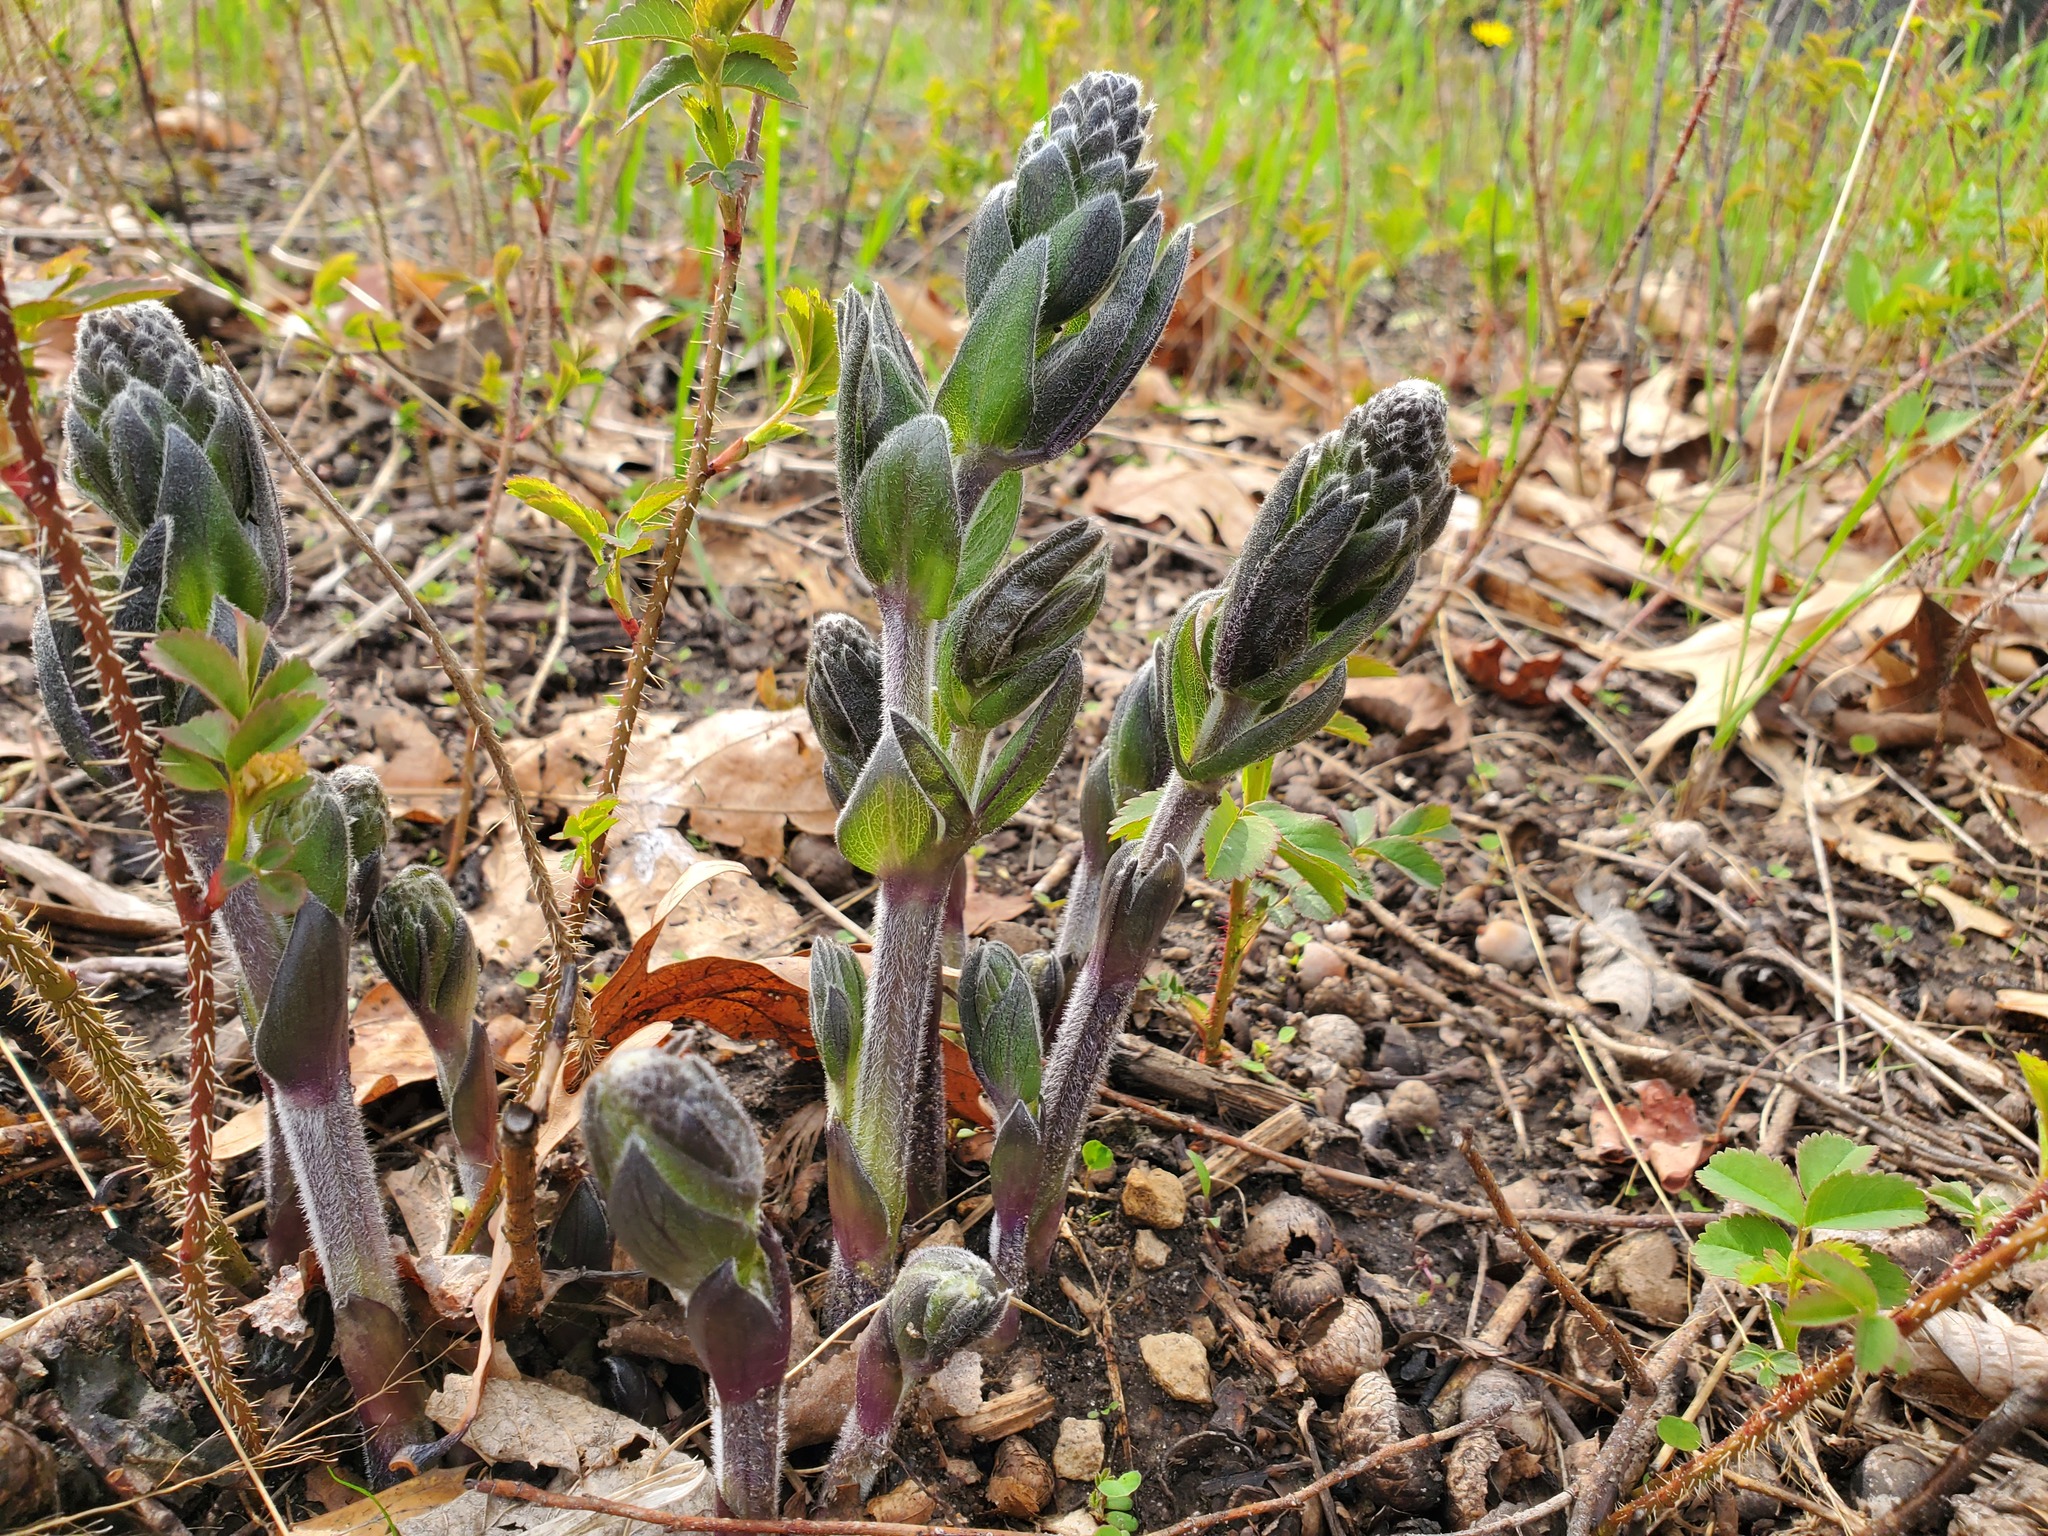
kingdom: Plantae
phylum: Tracheophyta
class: Magnoliopsida
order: Fabales
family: Fabaceae
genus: Baptisia
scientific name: Baptisia bracteata
